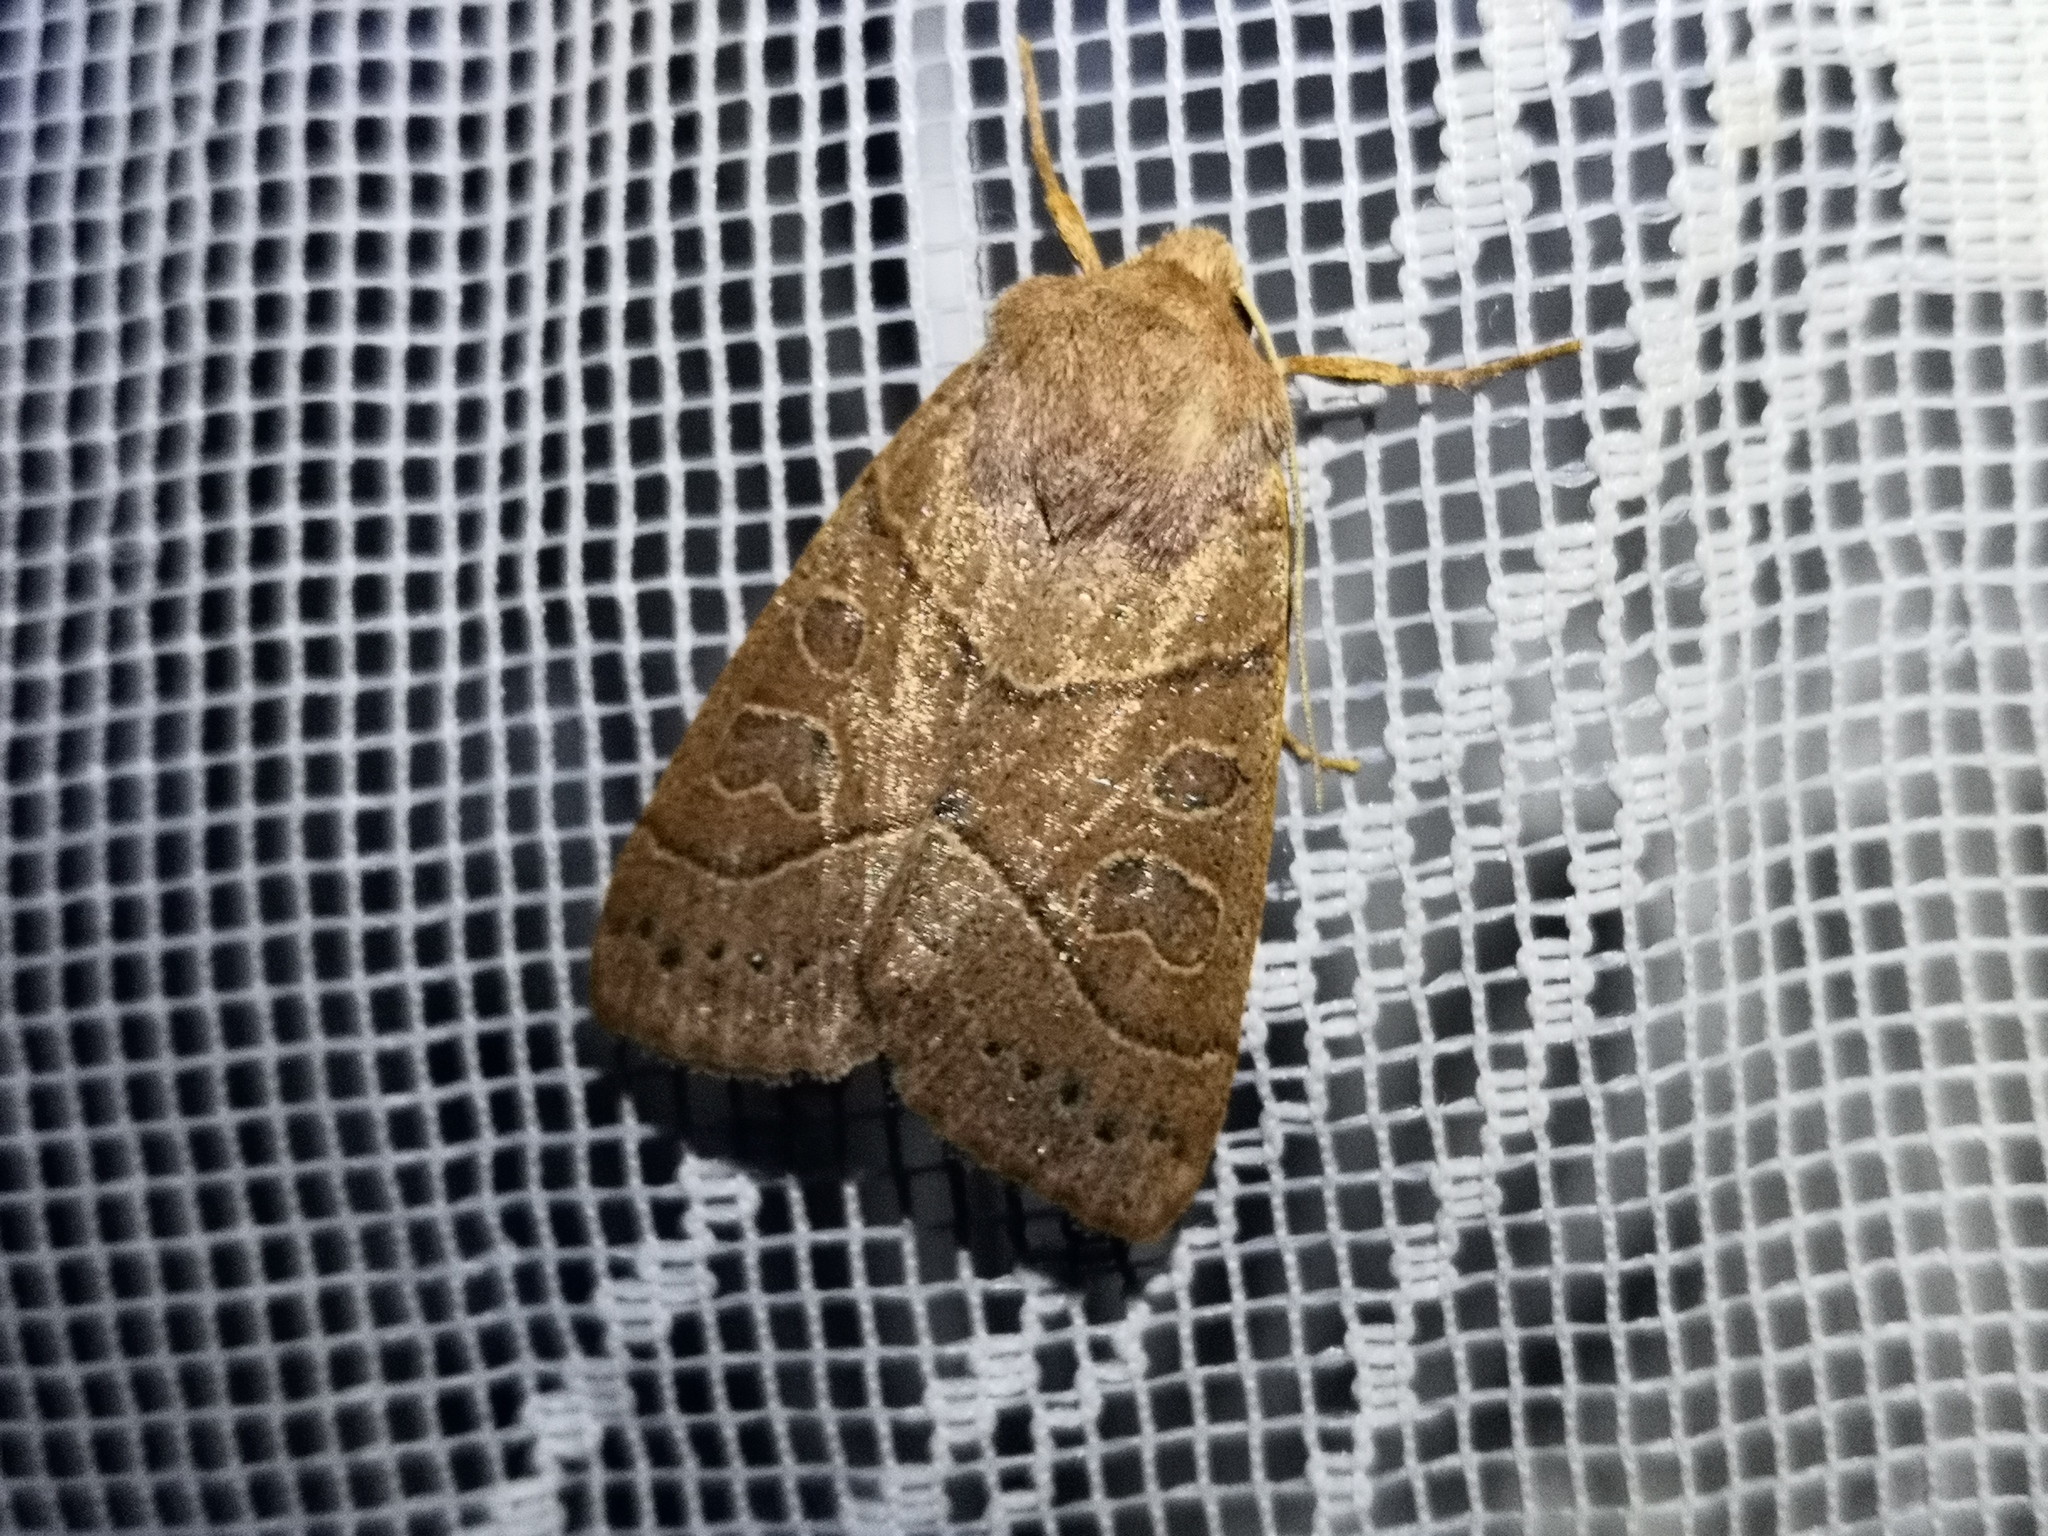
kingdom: Animalia
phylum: Arthropoda
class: Insecta
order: Lepidoptera
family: Noctuidae
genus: Mesogona
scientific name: Mesogona acetosellae
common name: Pale stigma
